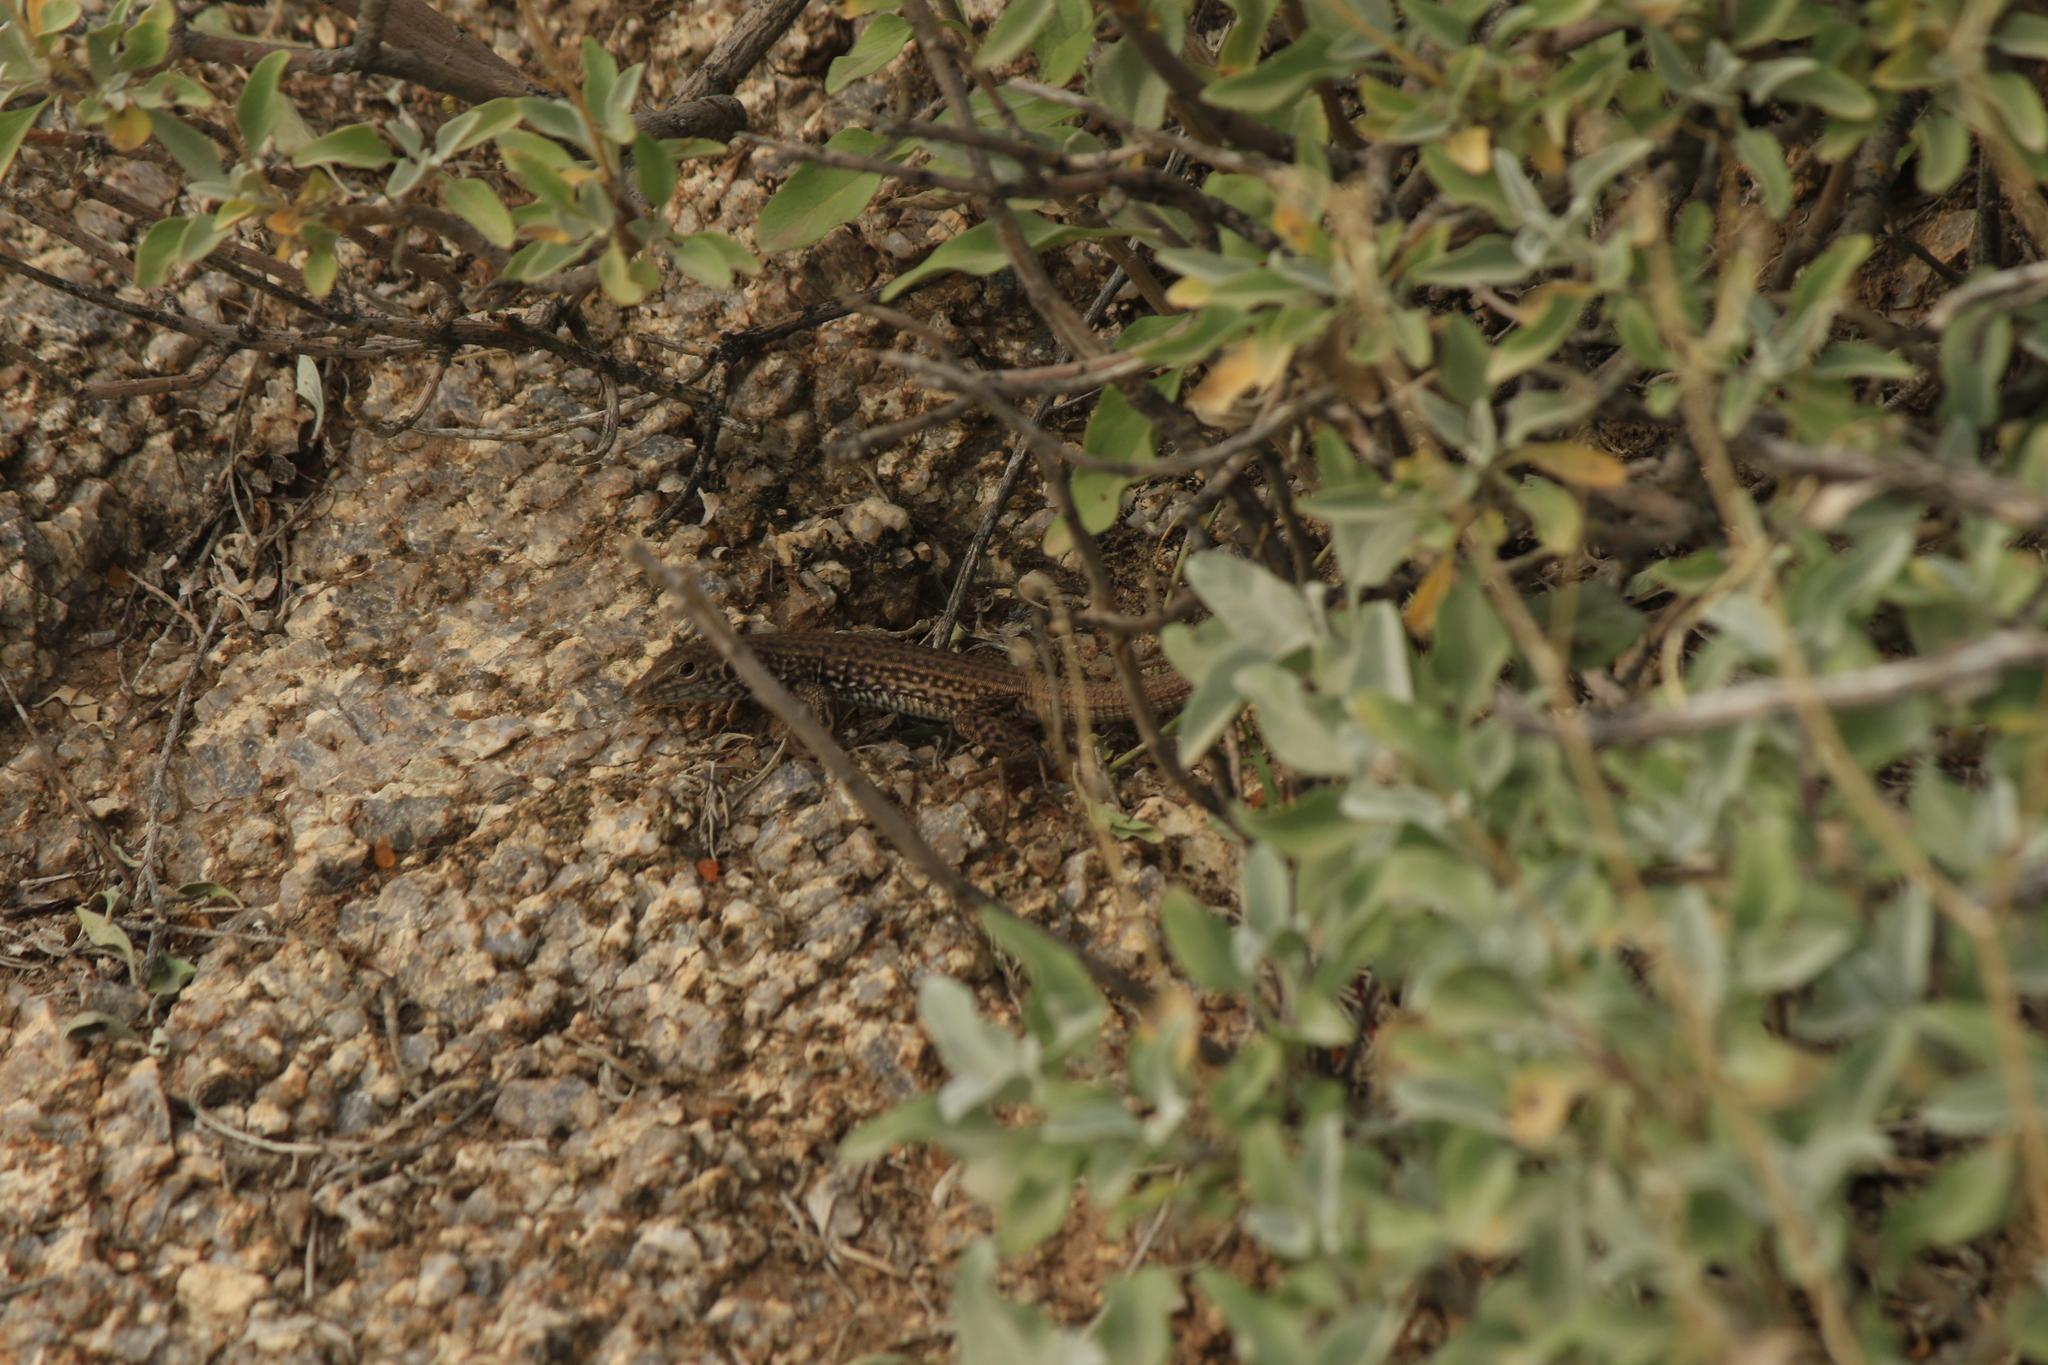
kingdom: Animalia
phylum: Chordata
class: Squamata
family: Teiidae
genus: Aspidoscelis
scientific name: Aspidoscelis tigris
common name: Tiger whiptail
